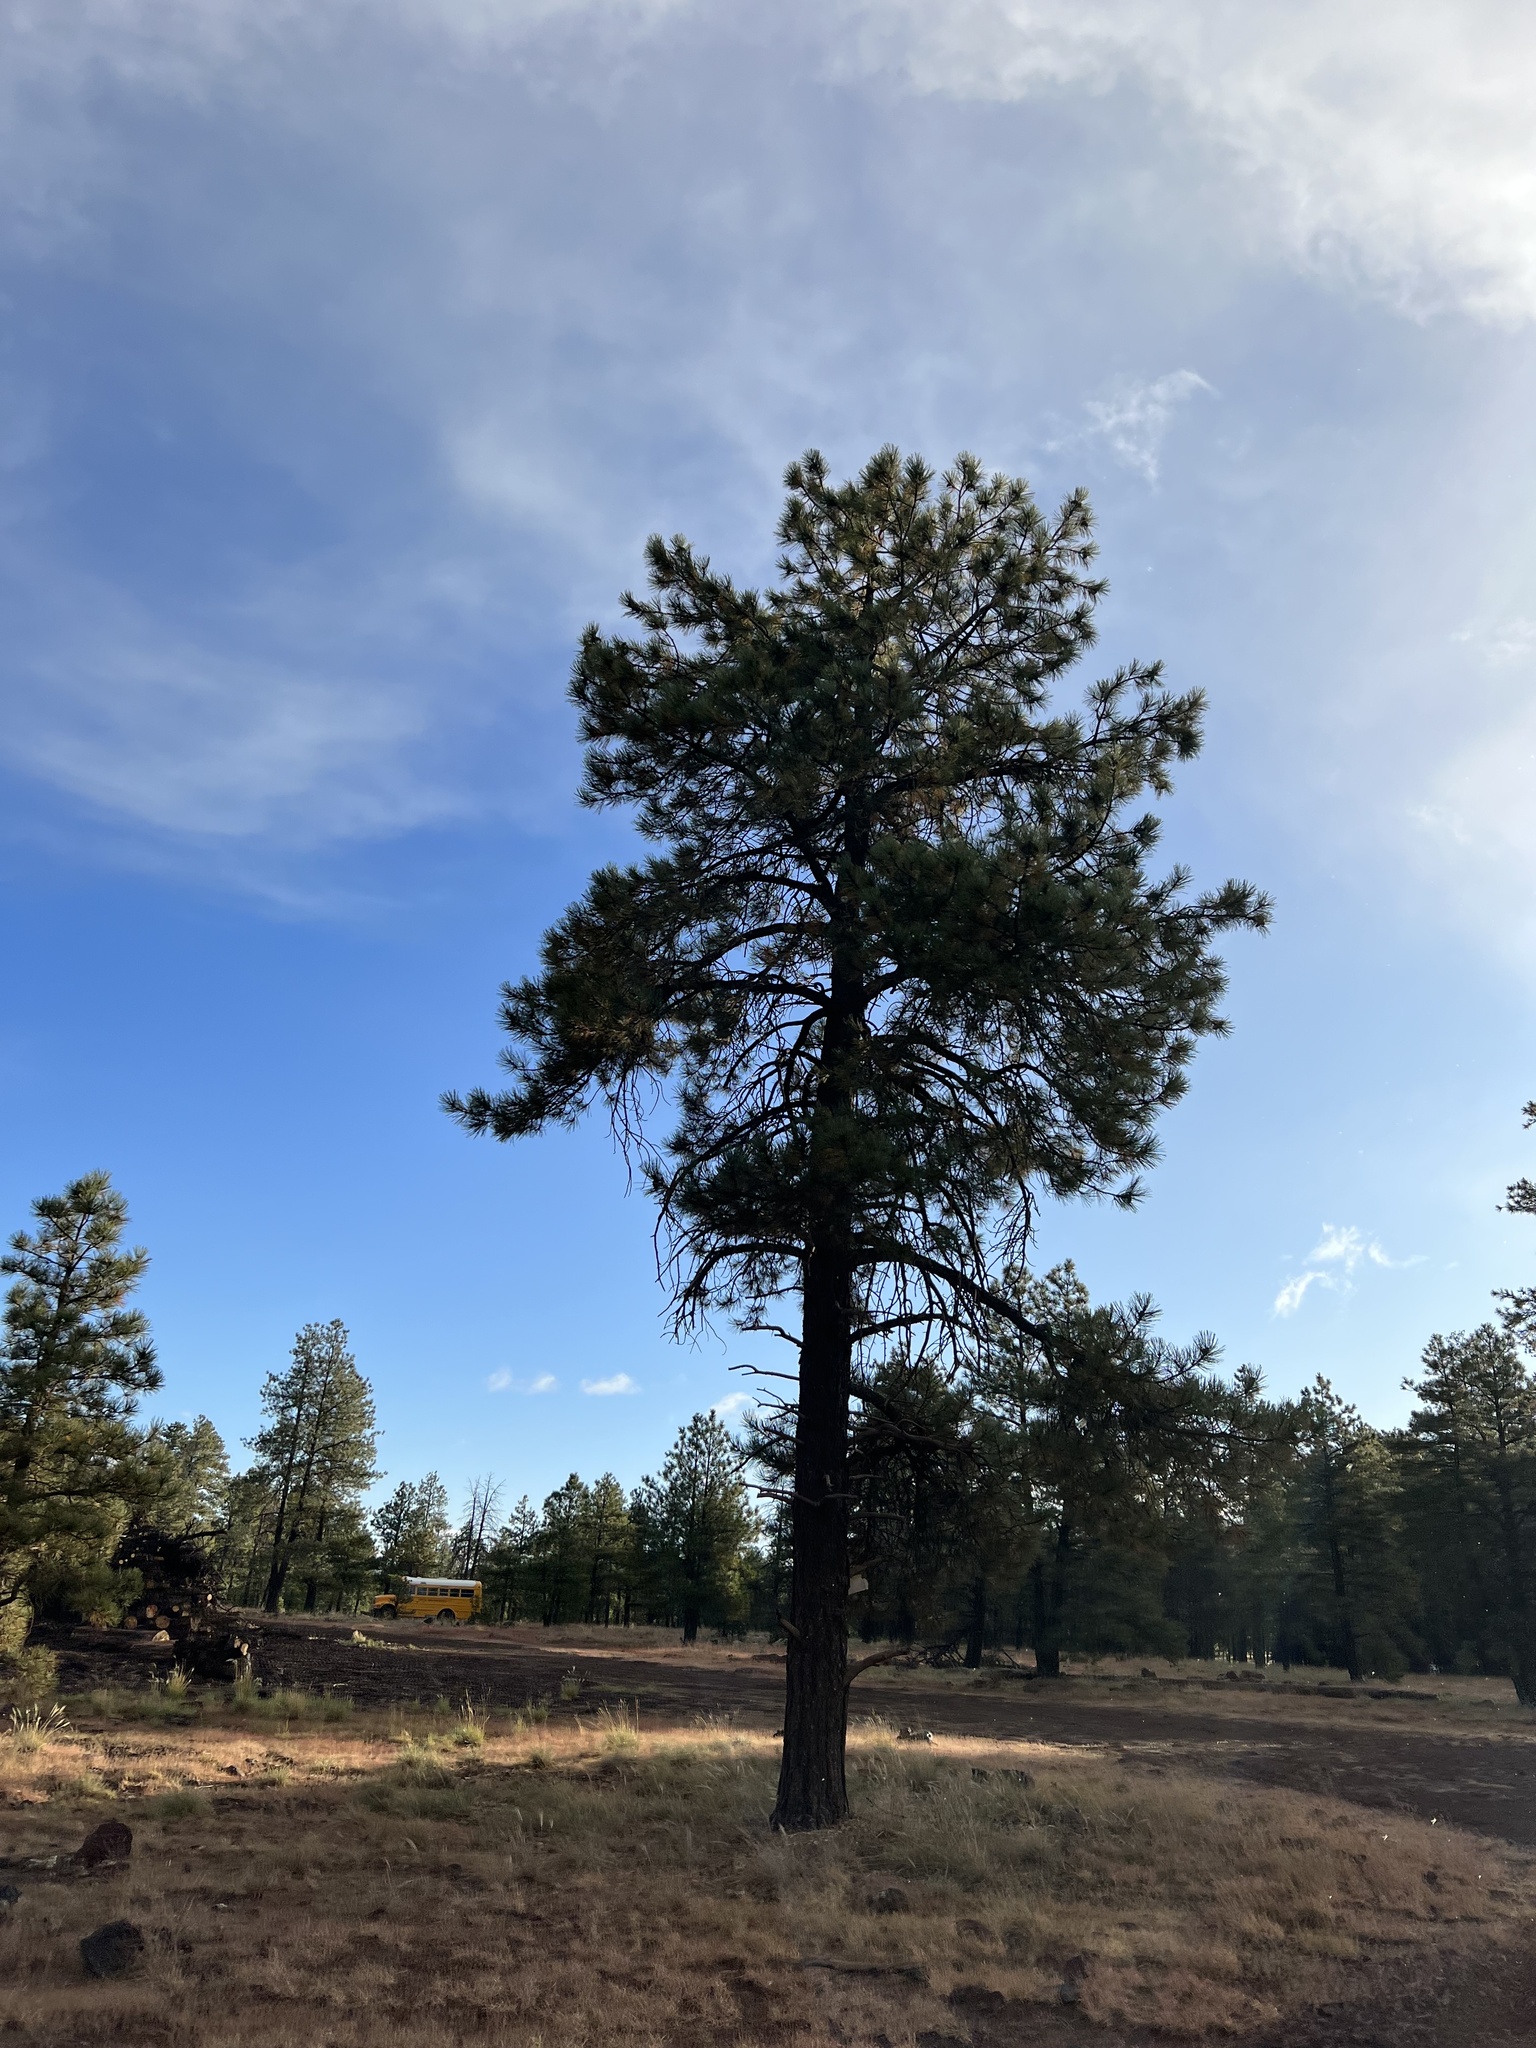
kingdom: Plantae
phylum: Tracheophyta
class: Pinopsida
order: Pinales
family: Pinaceae
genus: Pinus
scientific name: Pinus ponderosa
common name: Western yellow-pine
